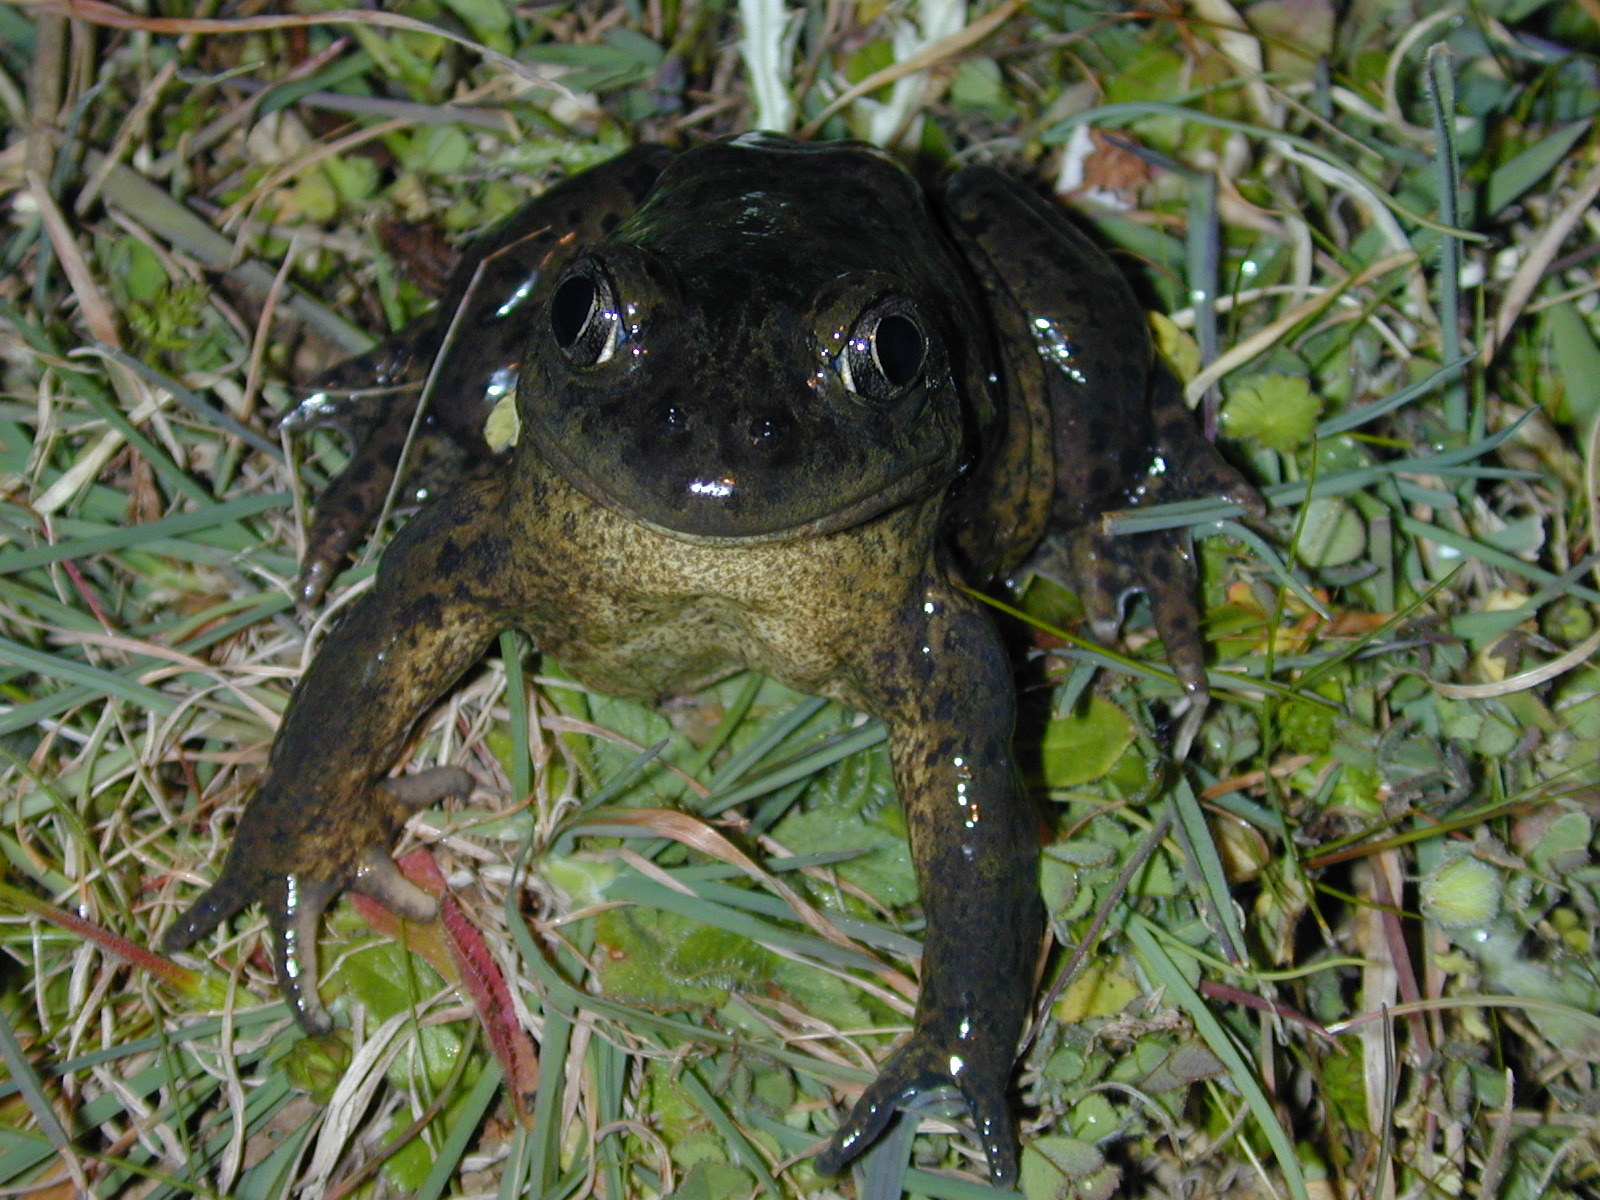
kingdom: Animalia
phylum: Chordata
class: Amphibia
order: Anura
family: Pelobatidae
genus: Pelobates
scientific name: Pelobates cultripes
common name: Western spadefoot
